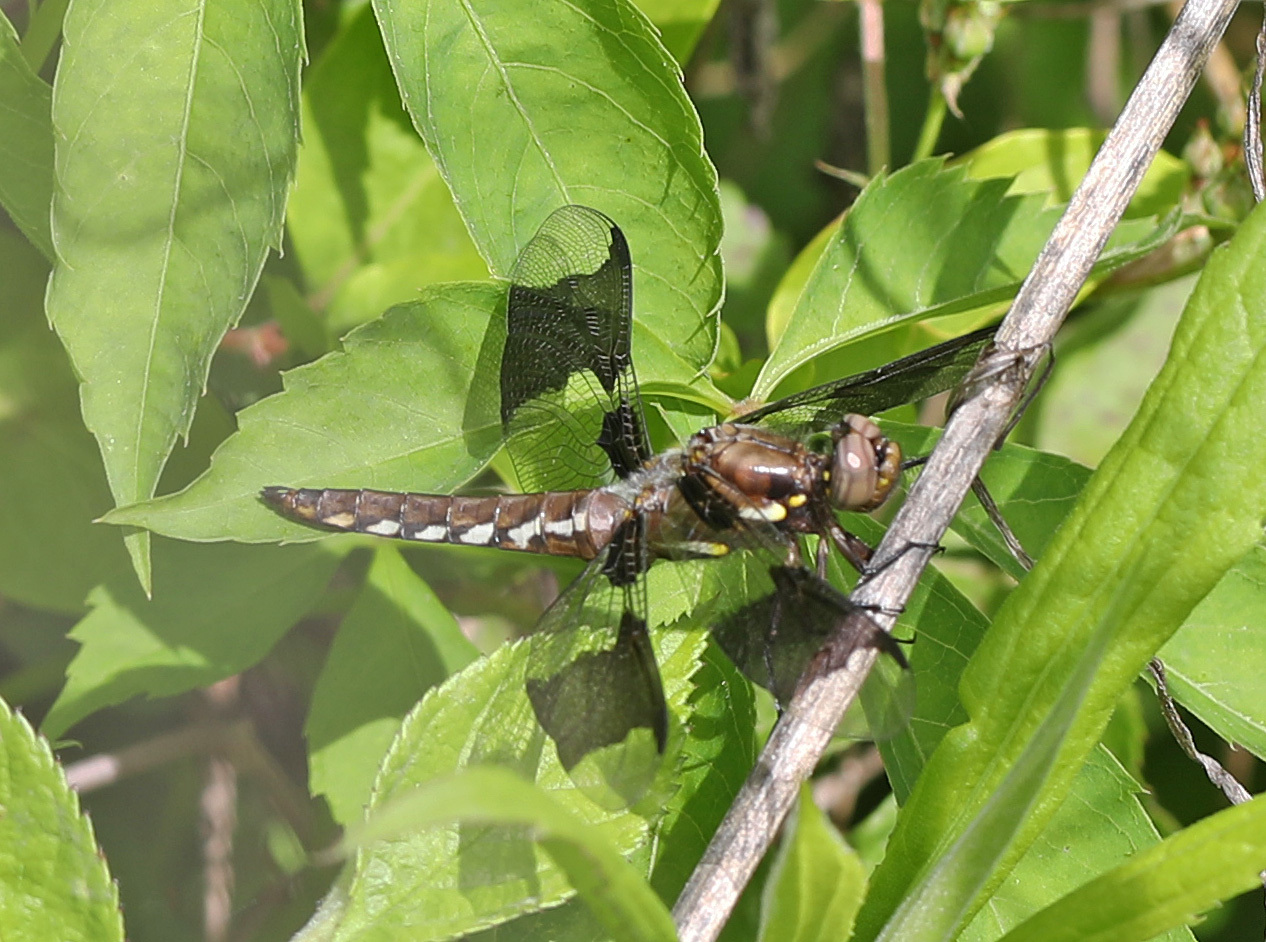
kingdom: Animalia
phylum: Arthropoda
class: Insecta
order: Odonata
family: Libellulidae
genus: Plathemis
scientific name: Plathemis lydia
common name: Common whitetail
